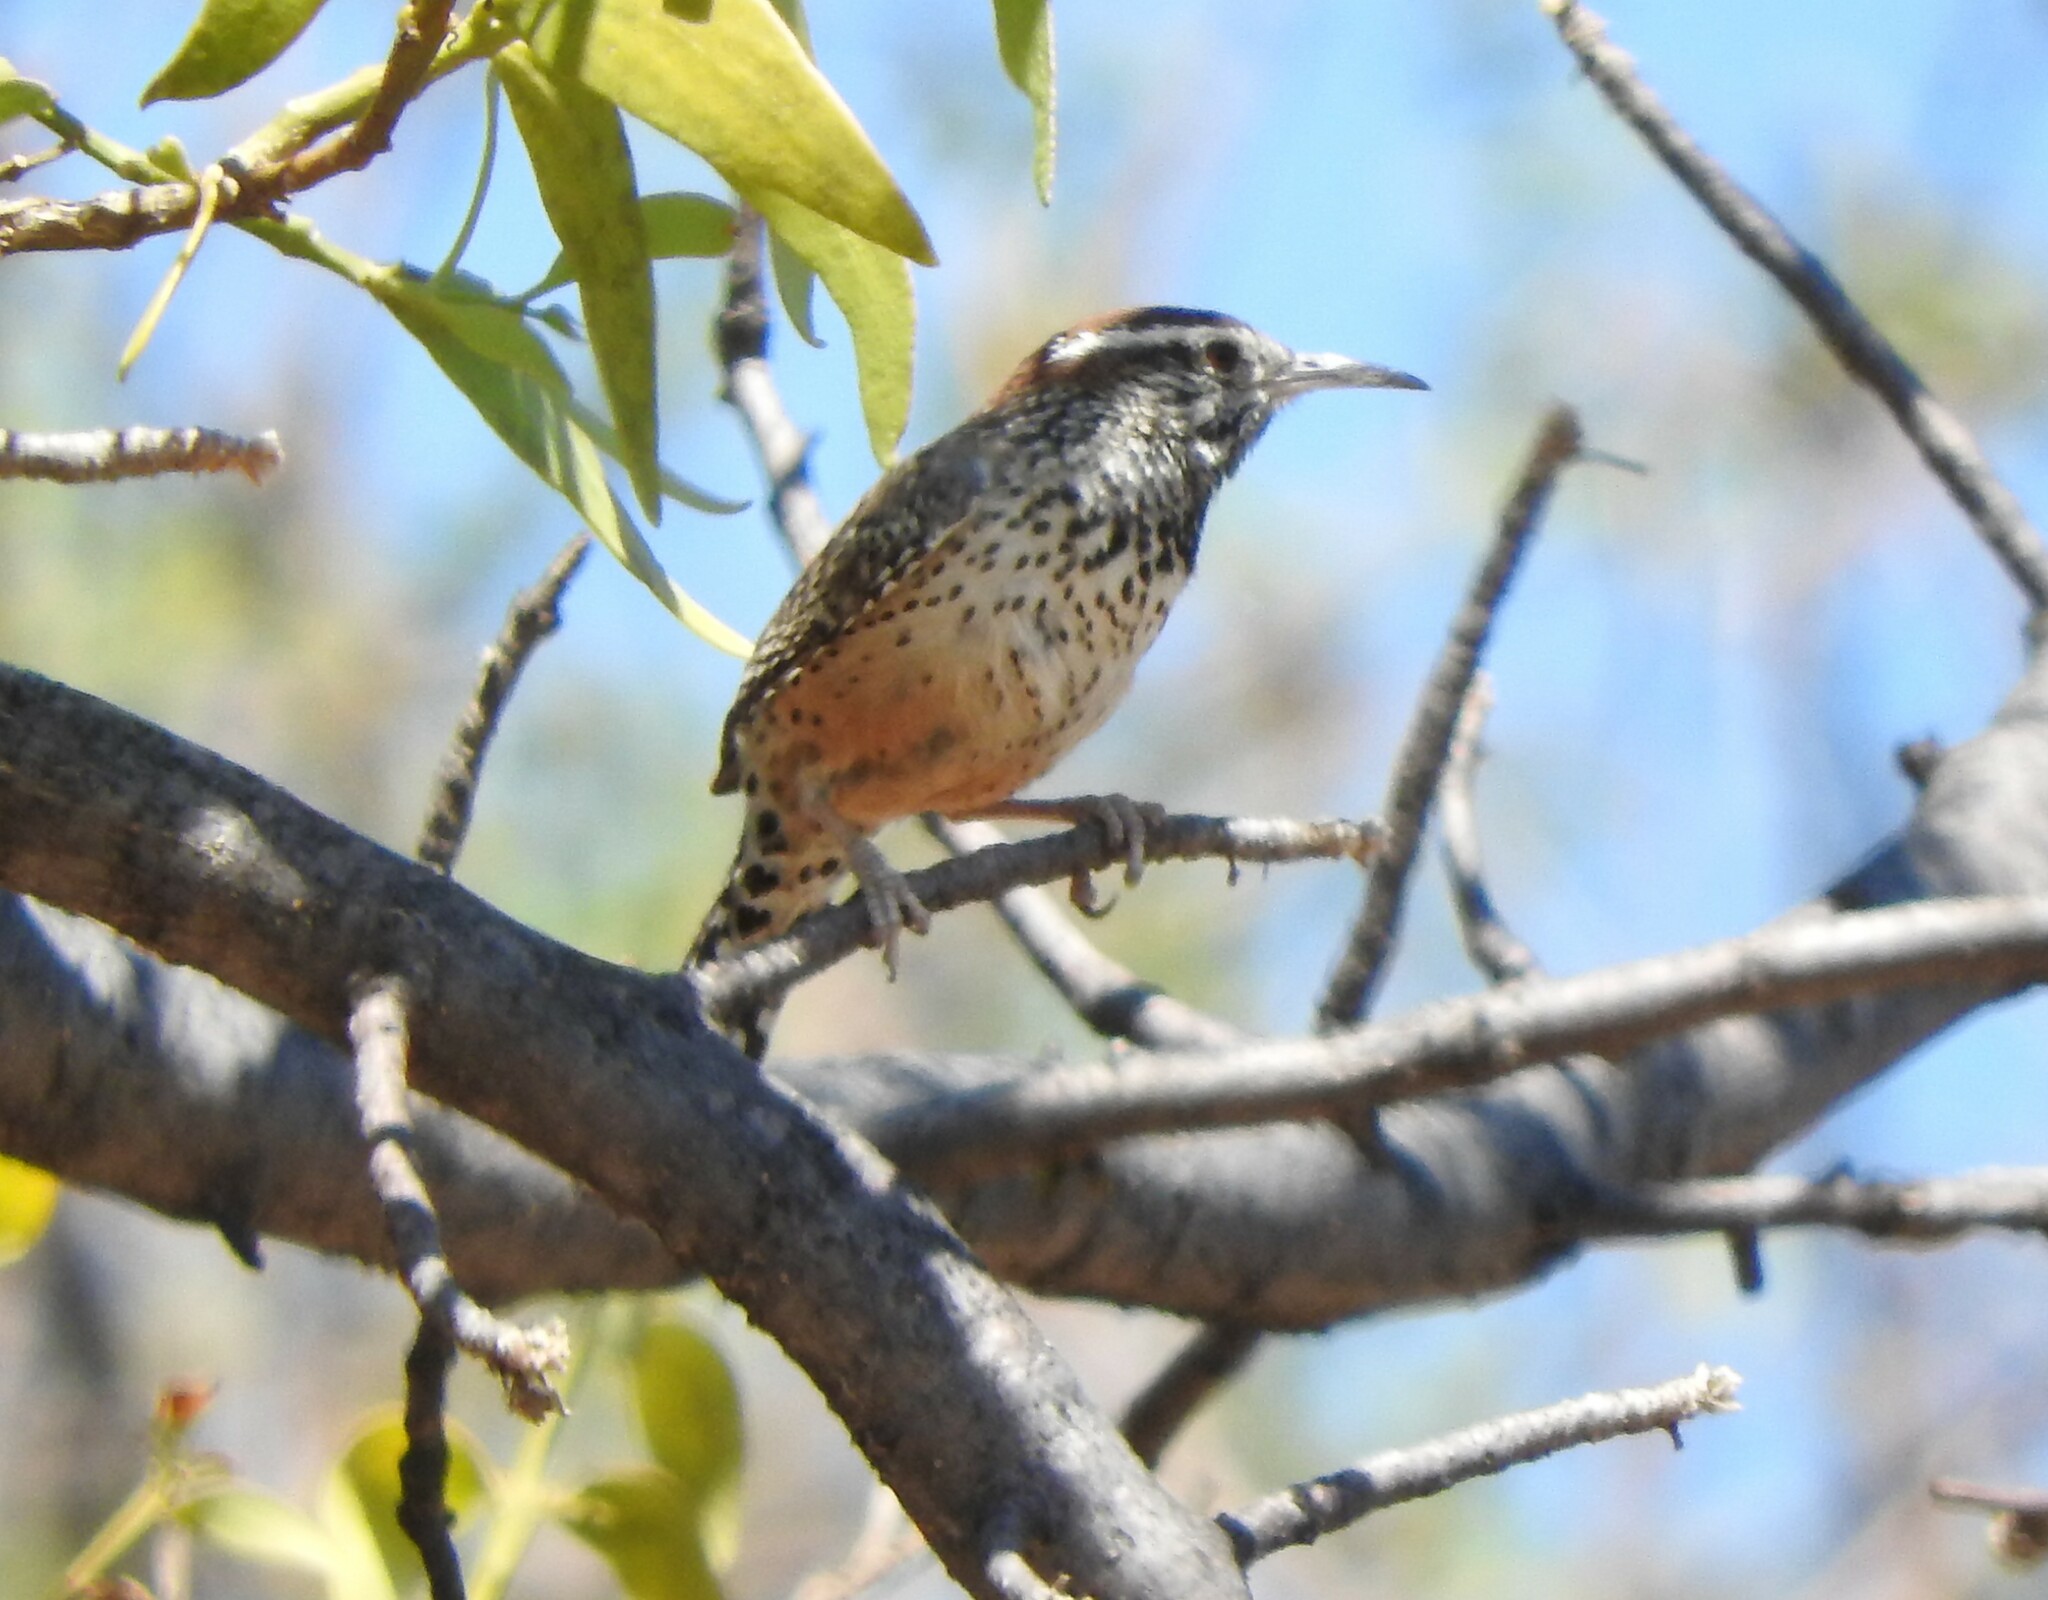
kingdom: Animalia
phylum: Chordata
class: Aves
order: Passeriformes
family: Troglodytidae
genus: Campylorhynchus
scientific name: Campylorhynchus brunneicapillus
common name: Cactus wren
